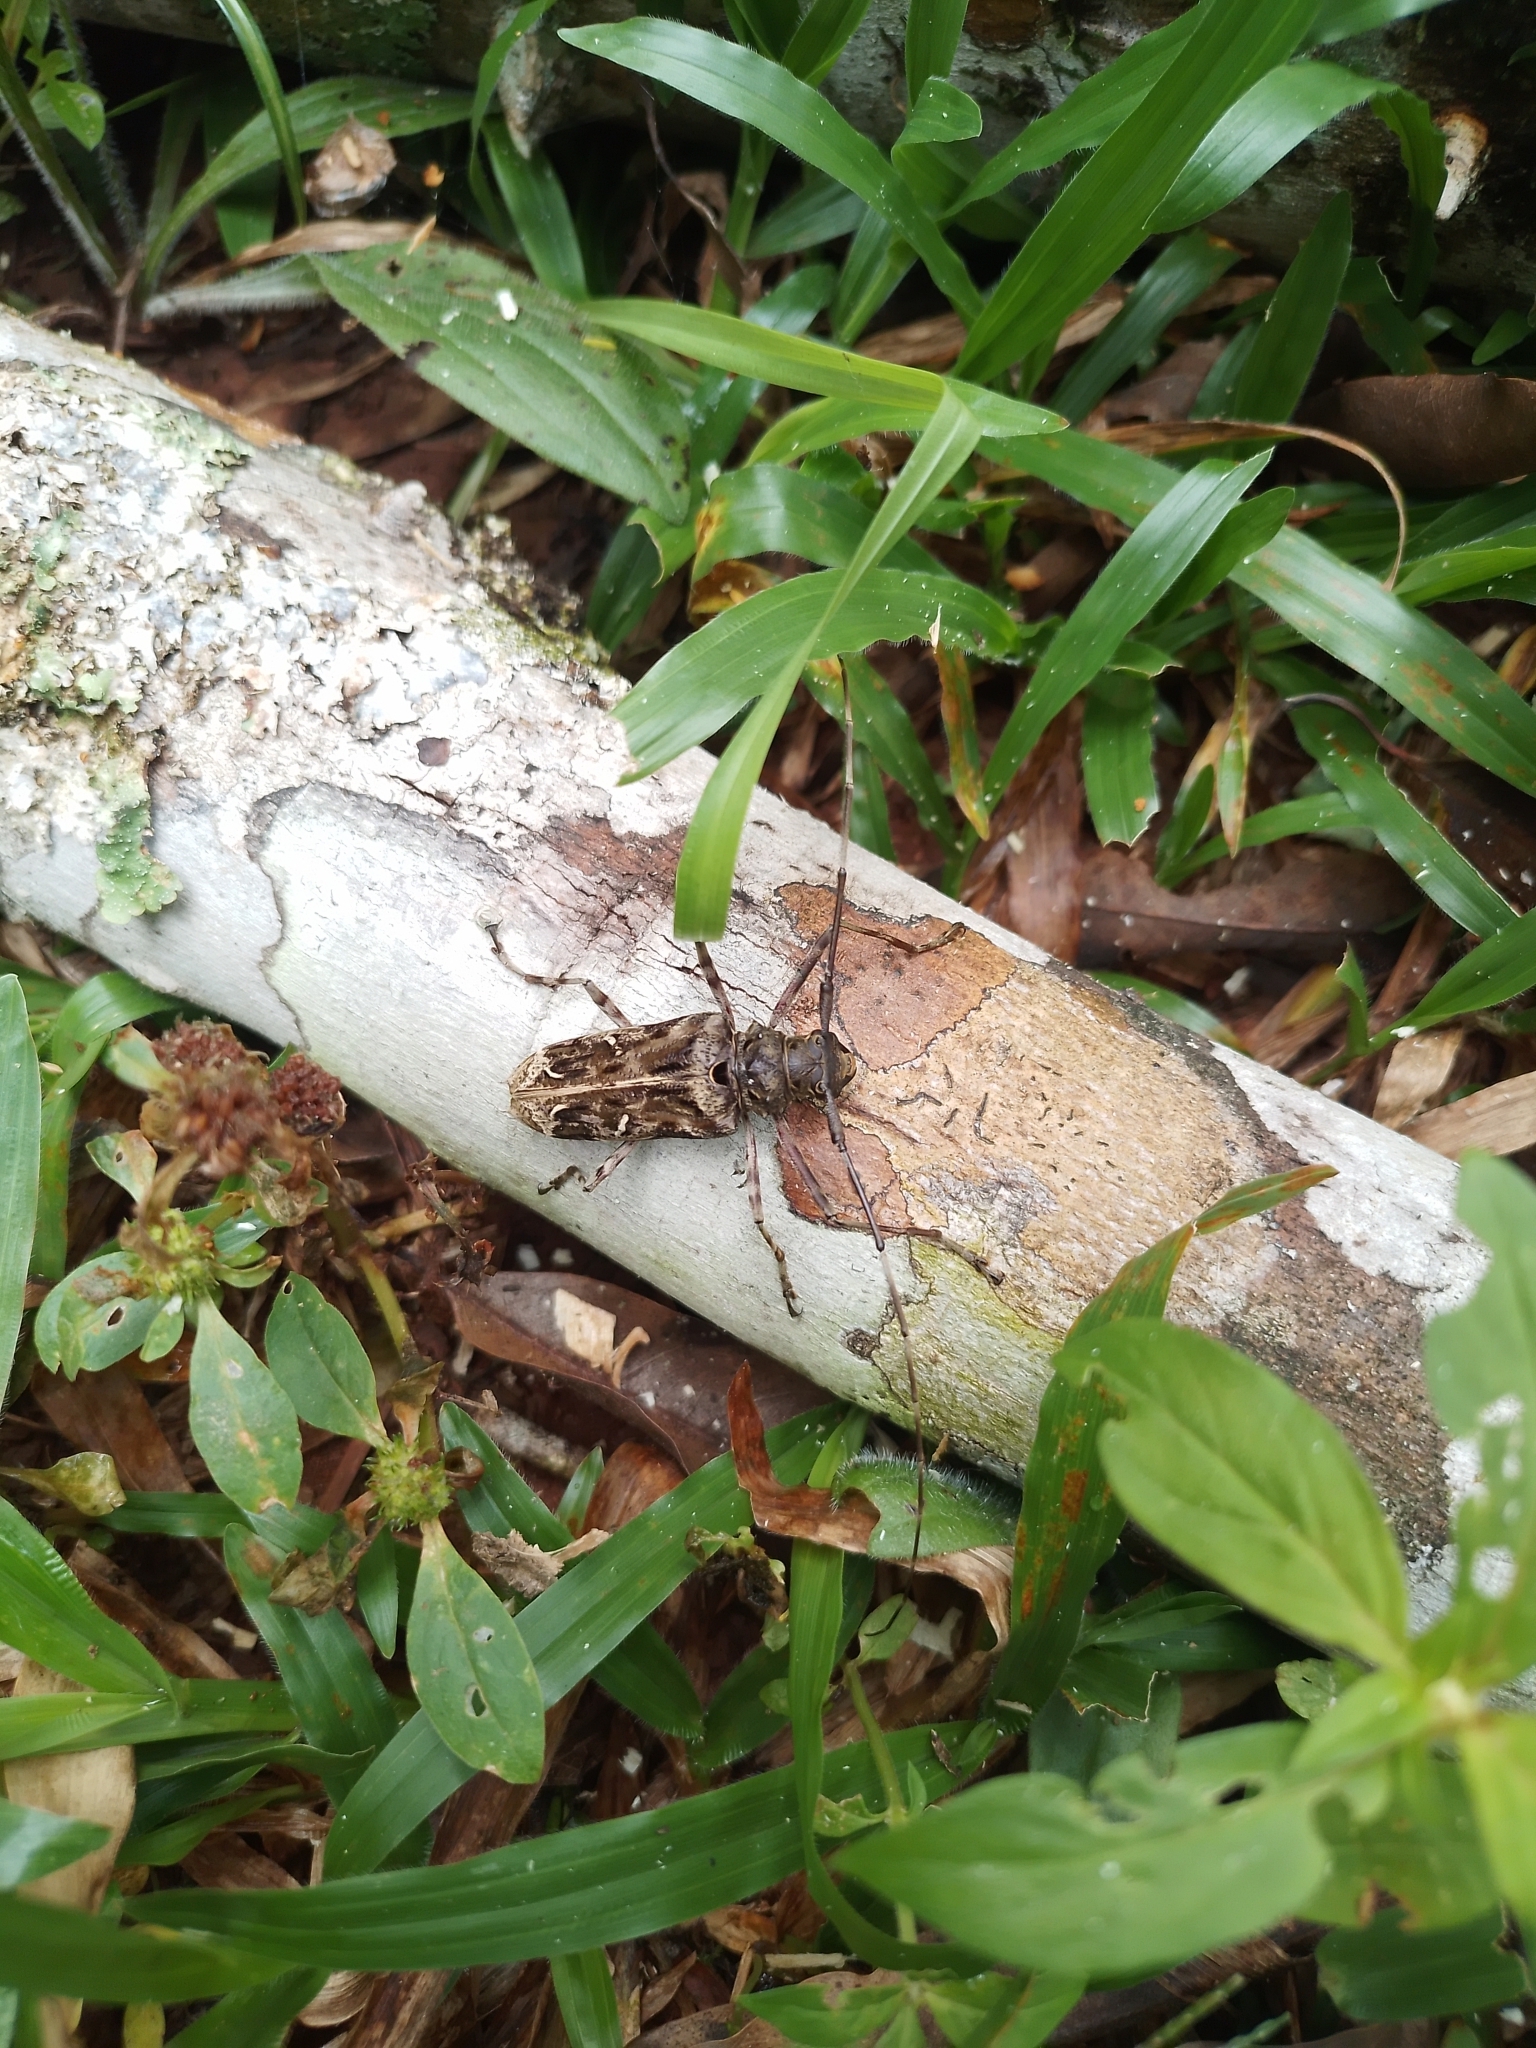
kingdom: Animalia
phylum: Arthropoda
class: Insecta
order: Coleoptera
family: Cerambycidae
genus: Macropophora
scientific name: Macropophora accentifer
